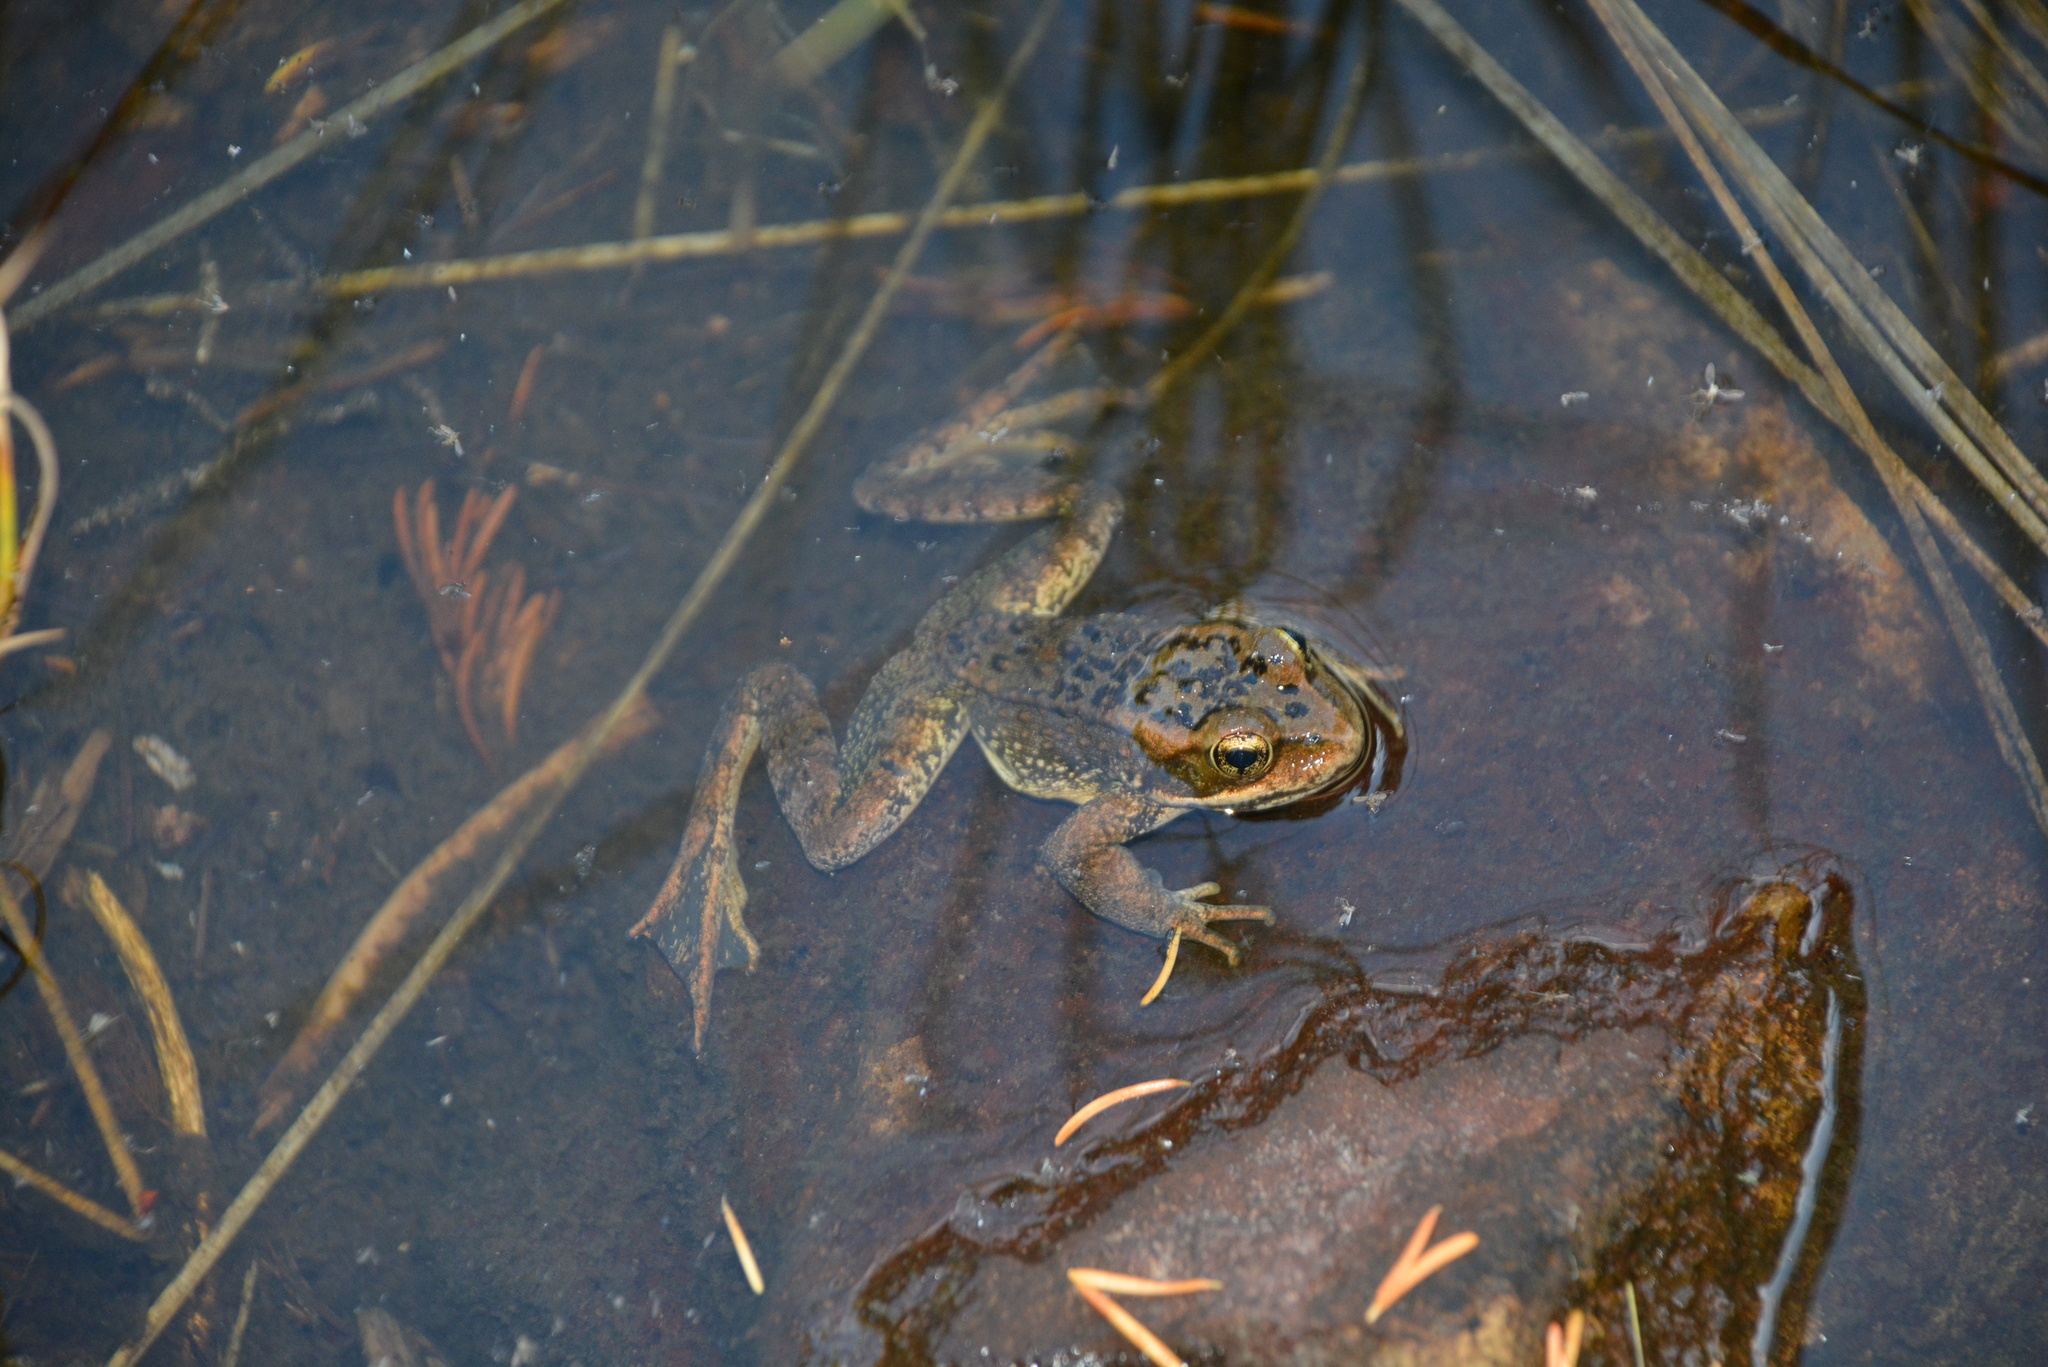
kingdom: Animalia
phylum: Chordata
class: Amphibia
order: Anura
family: Ranidae
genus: Rana
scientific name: Rana cascadae
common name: Cascades frog
